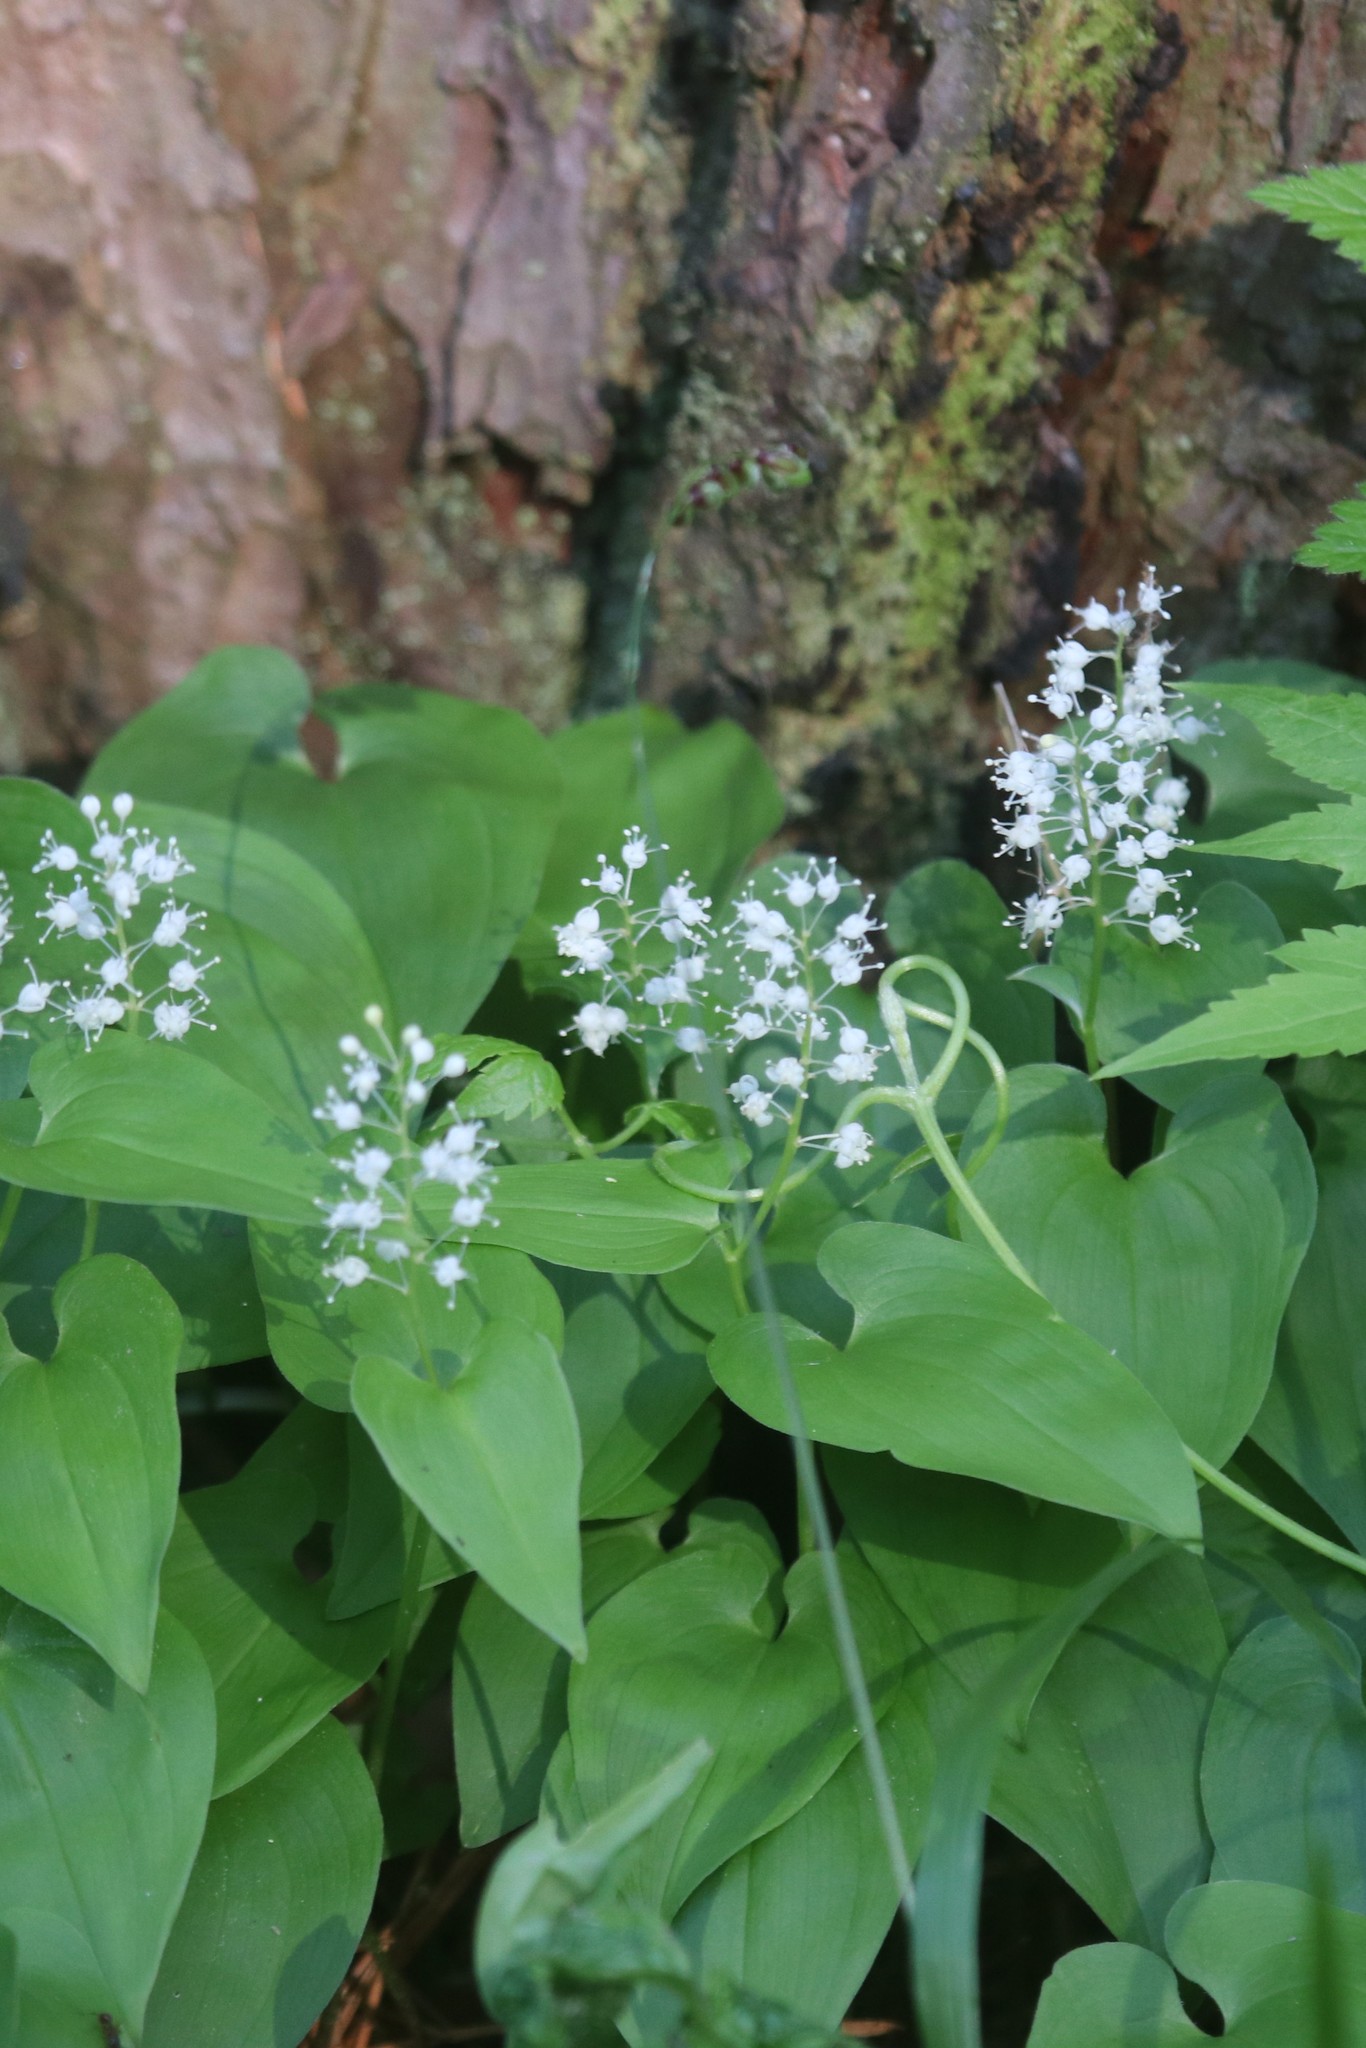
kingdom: Plantae
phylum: Tracheophyta
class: Liliopsida
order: Asparagales
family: Asparagaceae
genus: Maianthemum
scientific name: Maianthemum bifolium
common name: May lily
